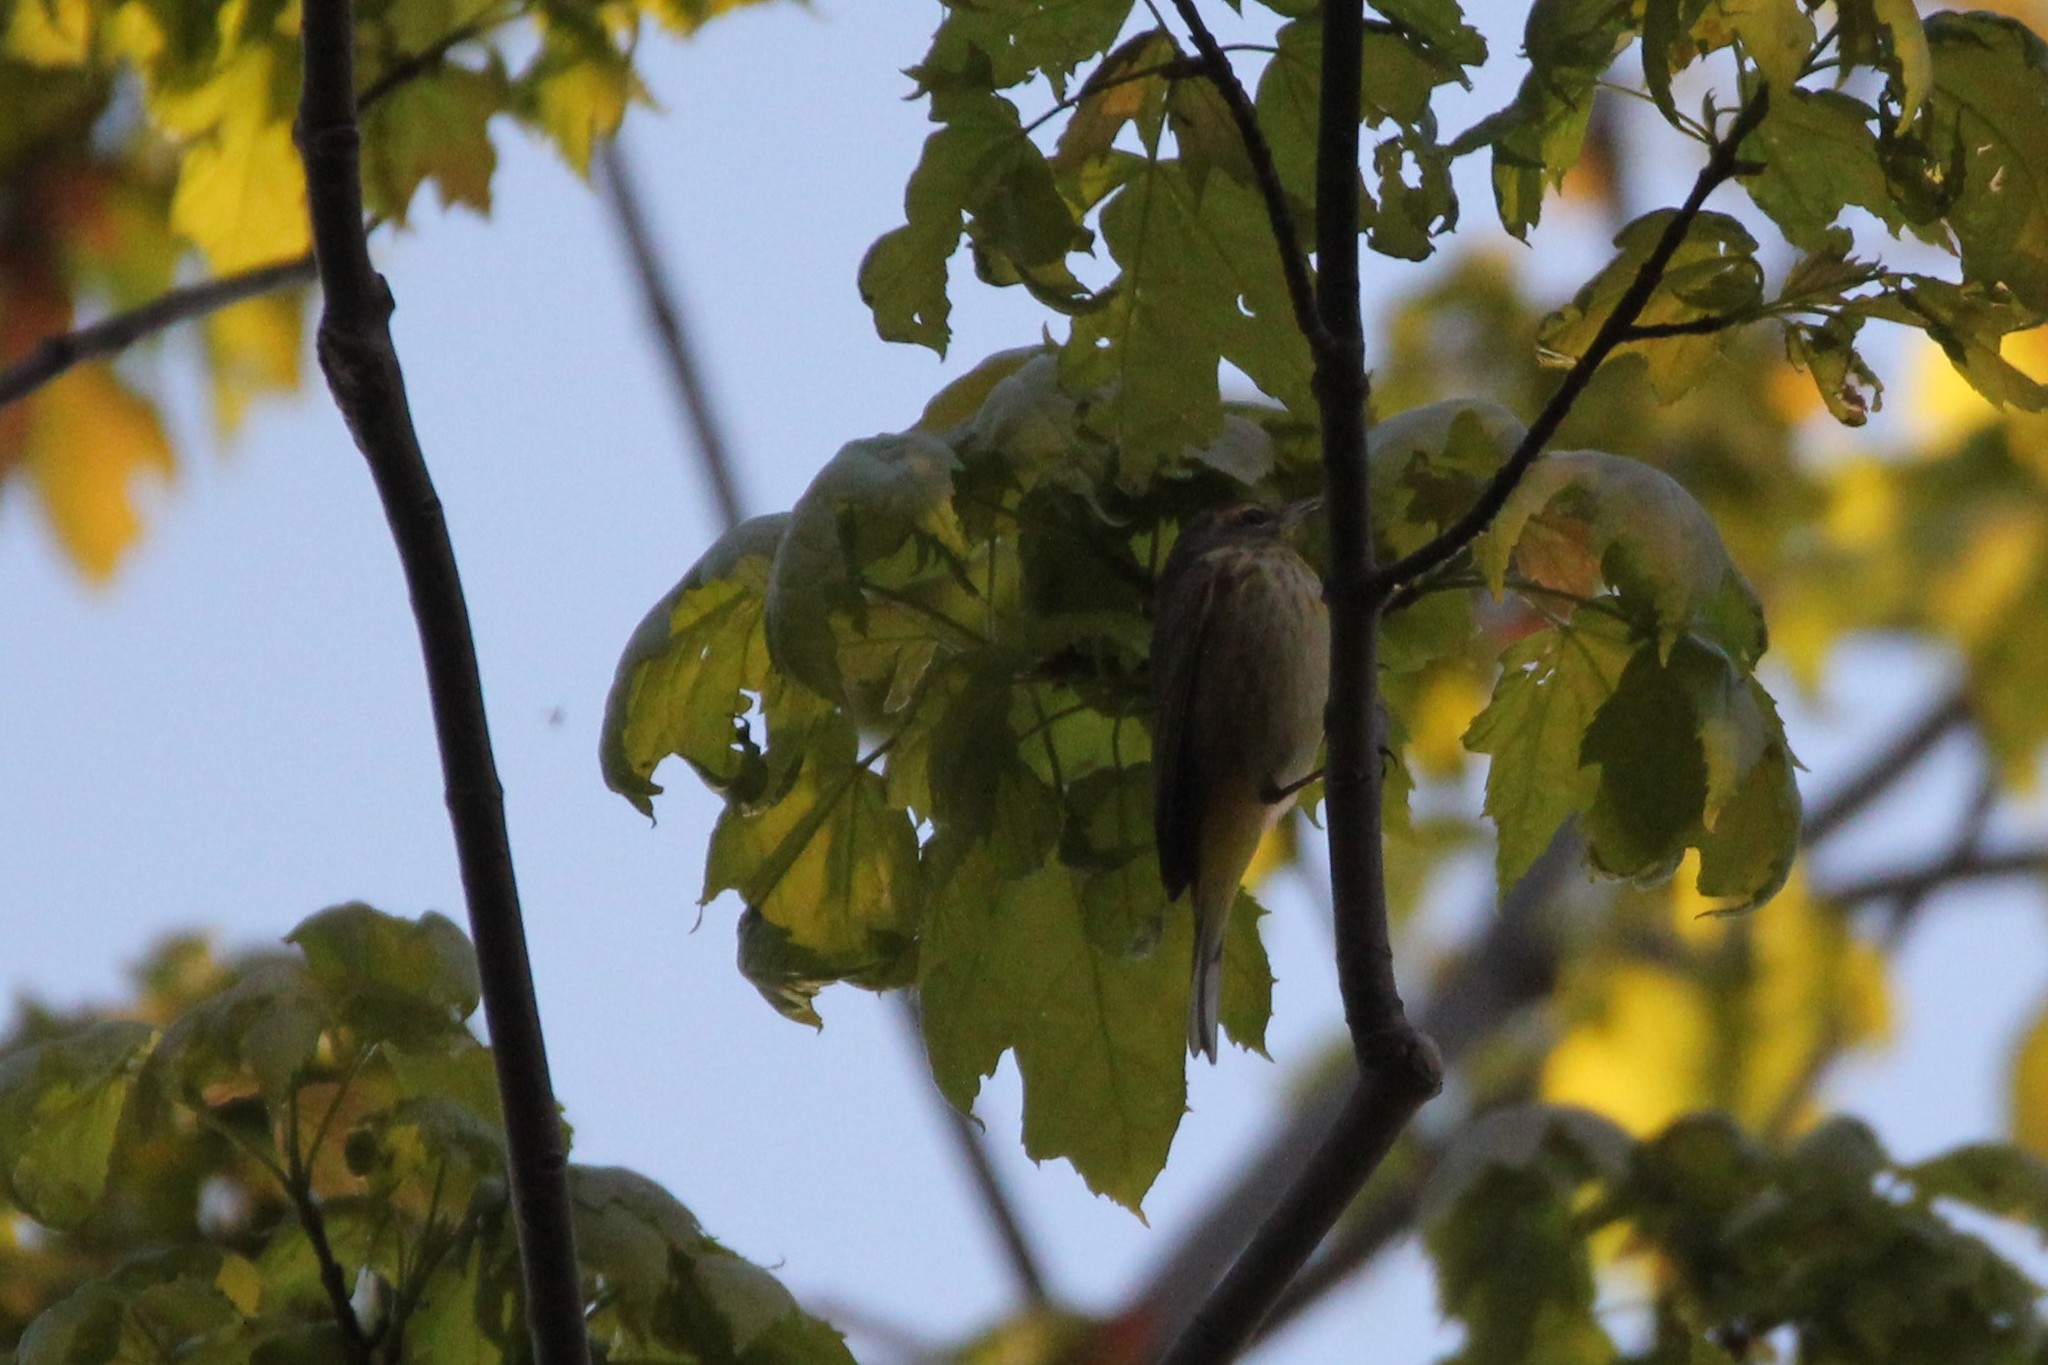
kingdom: Animalia
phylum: Chordata
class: Aves
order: Passeriformes
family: Parulidae
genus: Setophaga
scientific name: Setophaga palmarum
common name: Palm warbler
